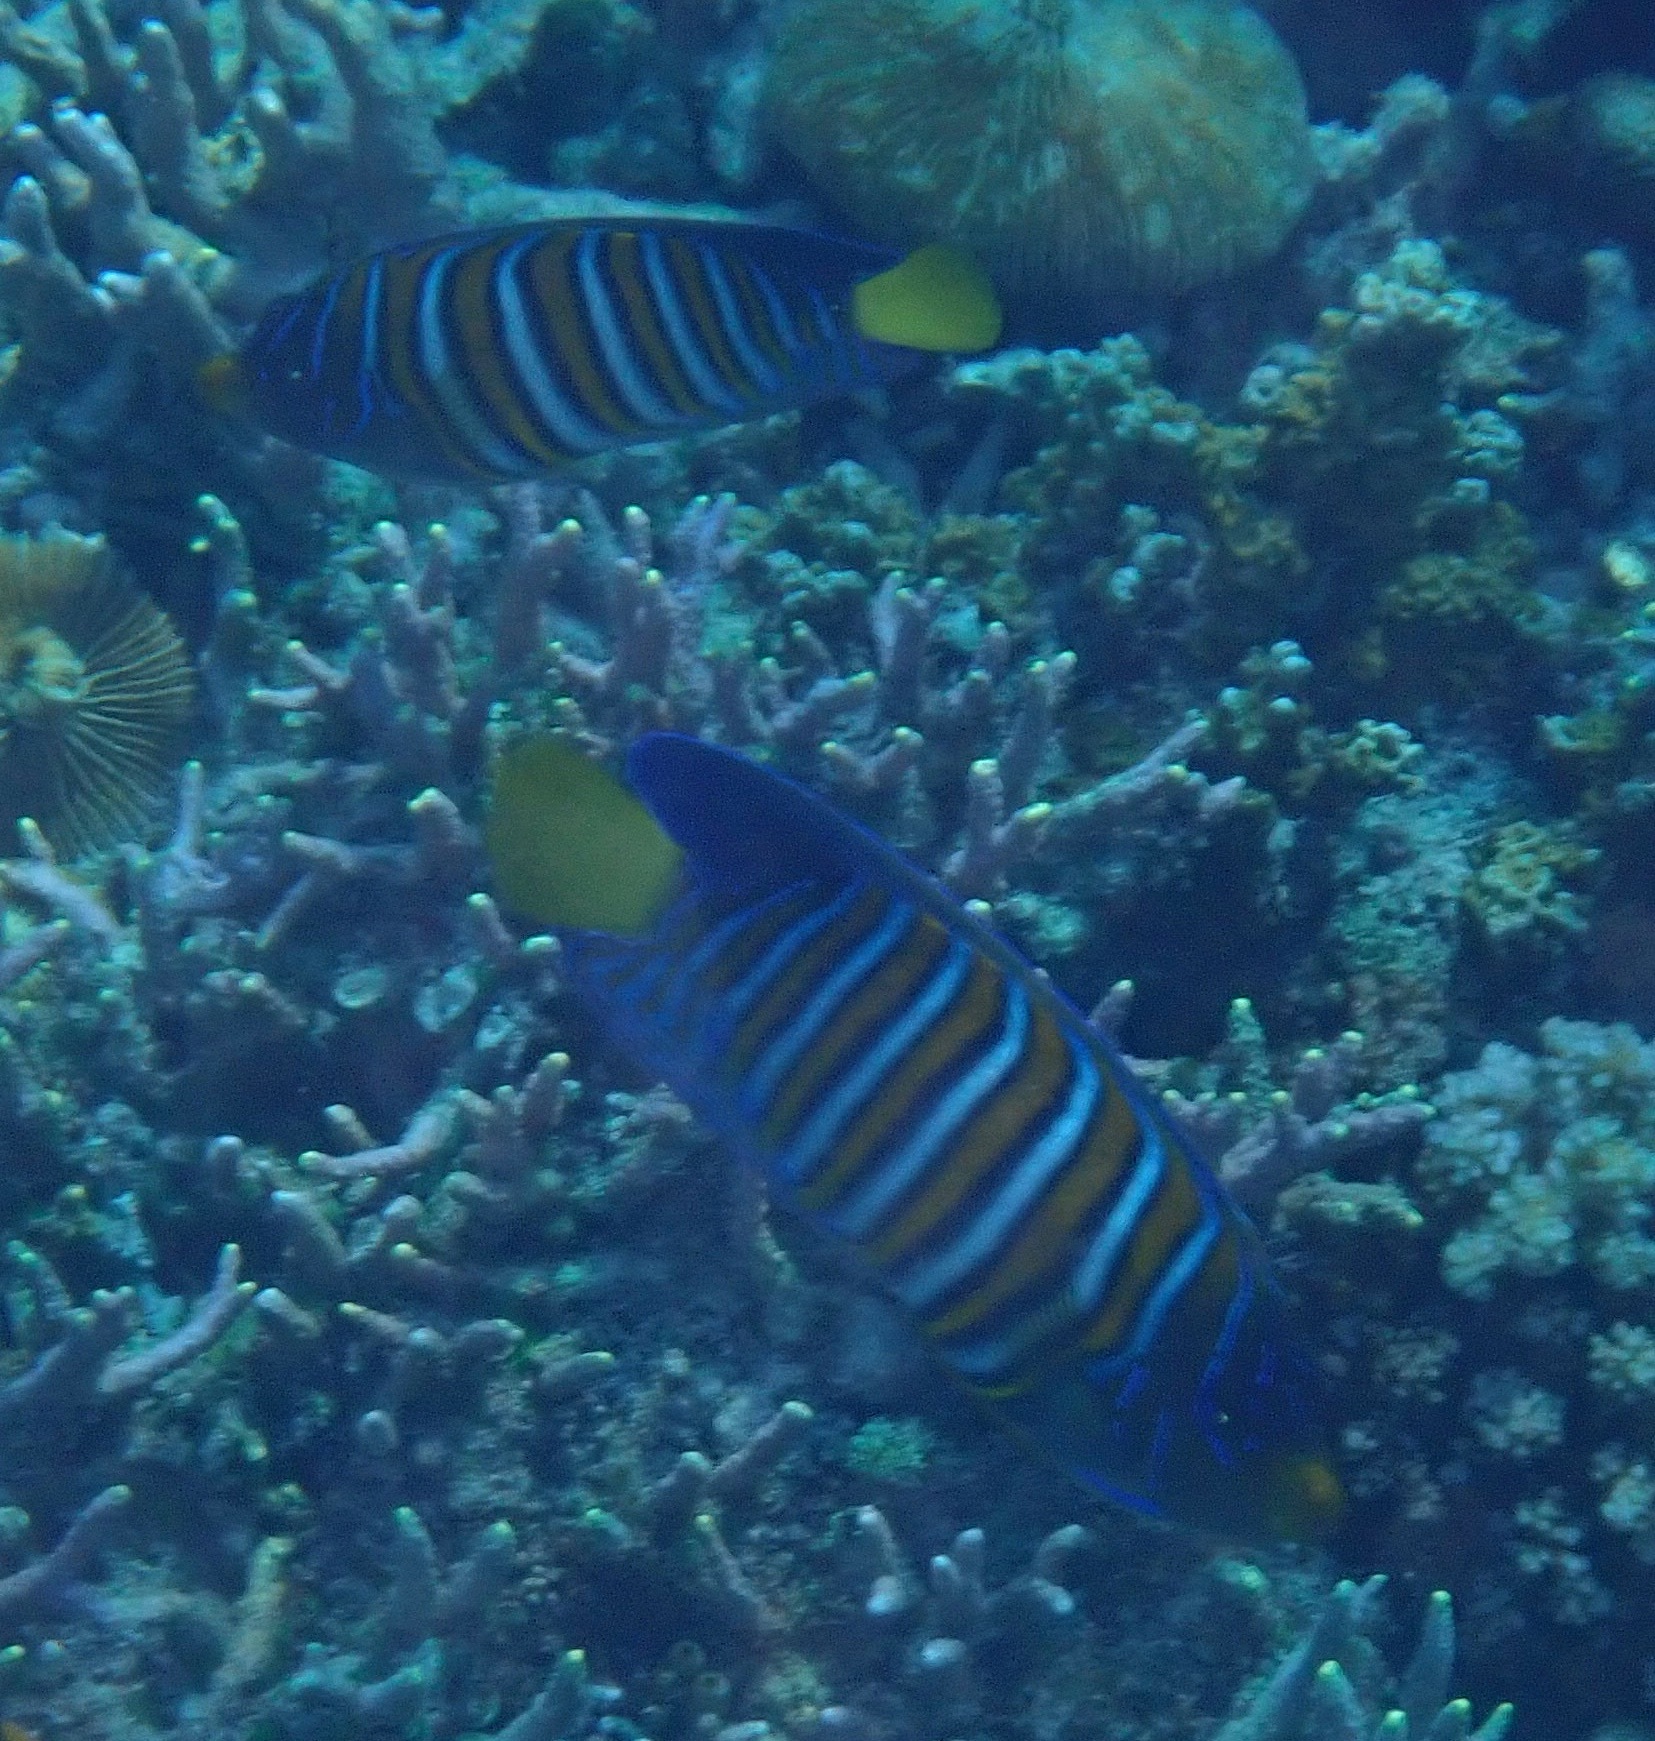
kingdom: Animalia
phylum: Chordata
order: Perciformes
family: Pomacanthidae
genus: Pygoplites
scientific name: Pygoplites diacanthus
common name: Regal angelfish
